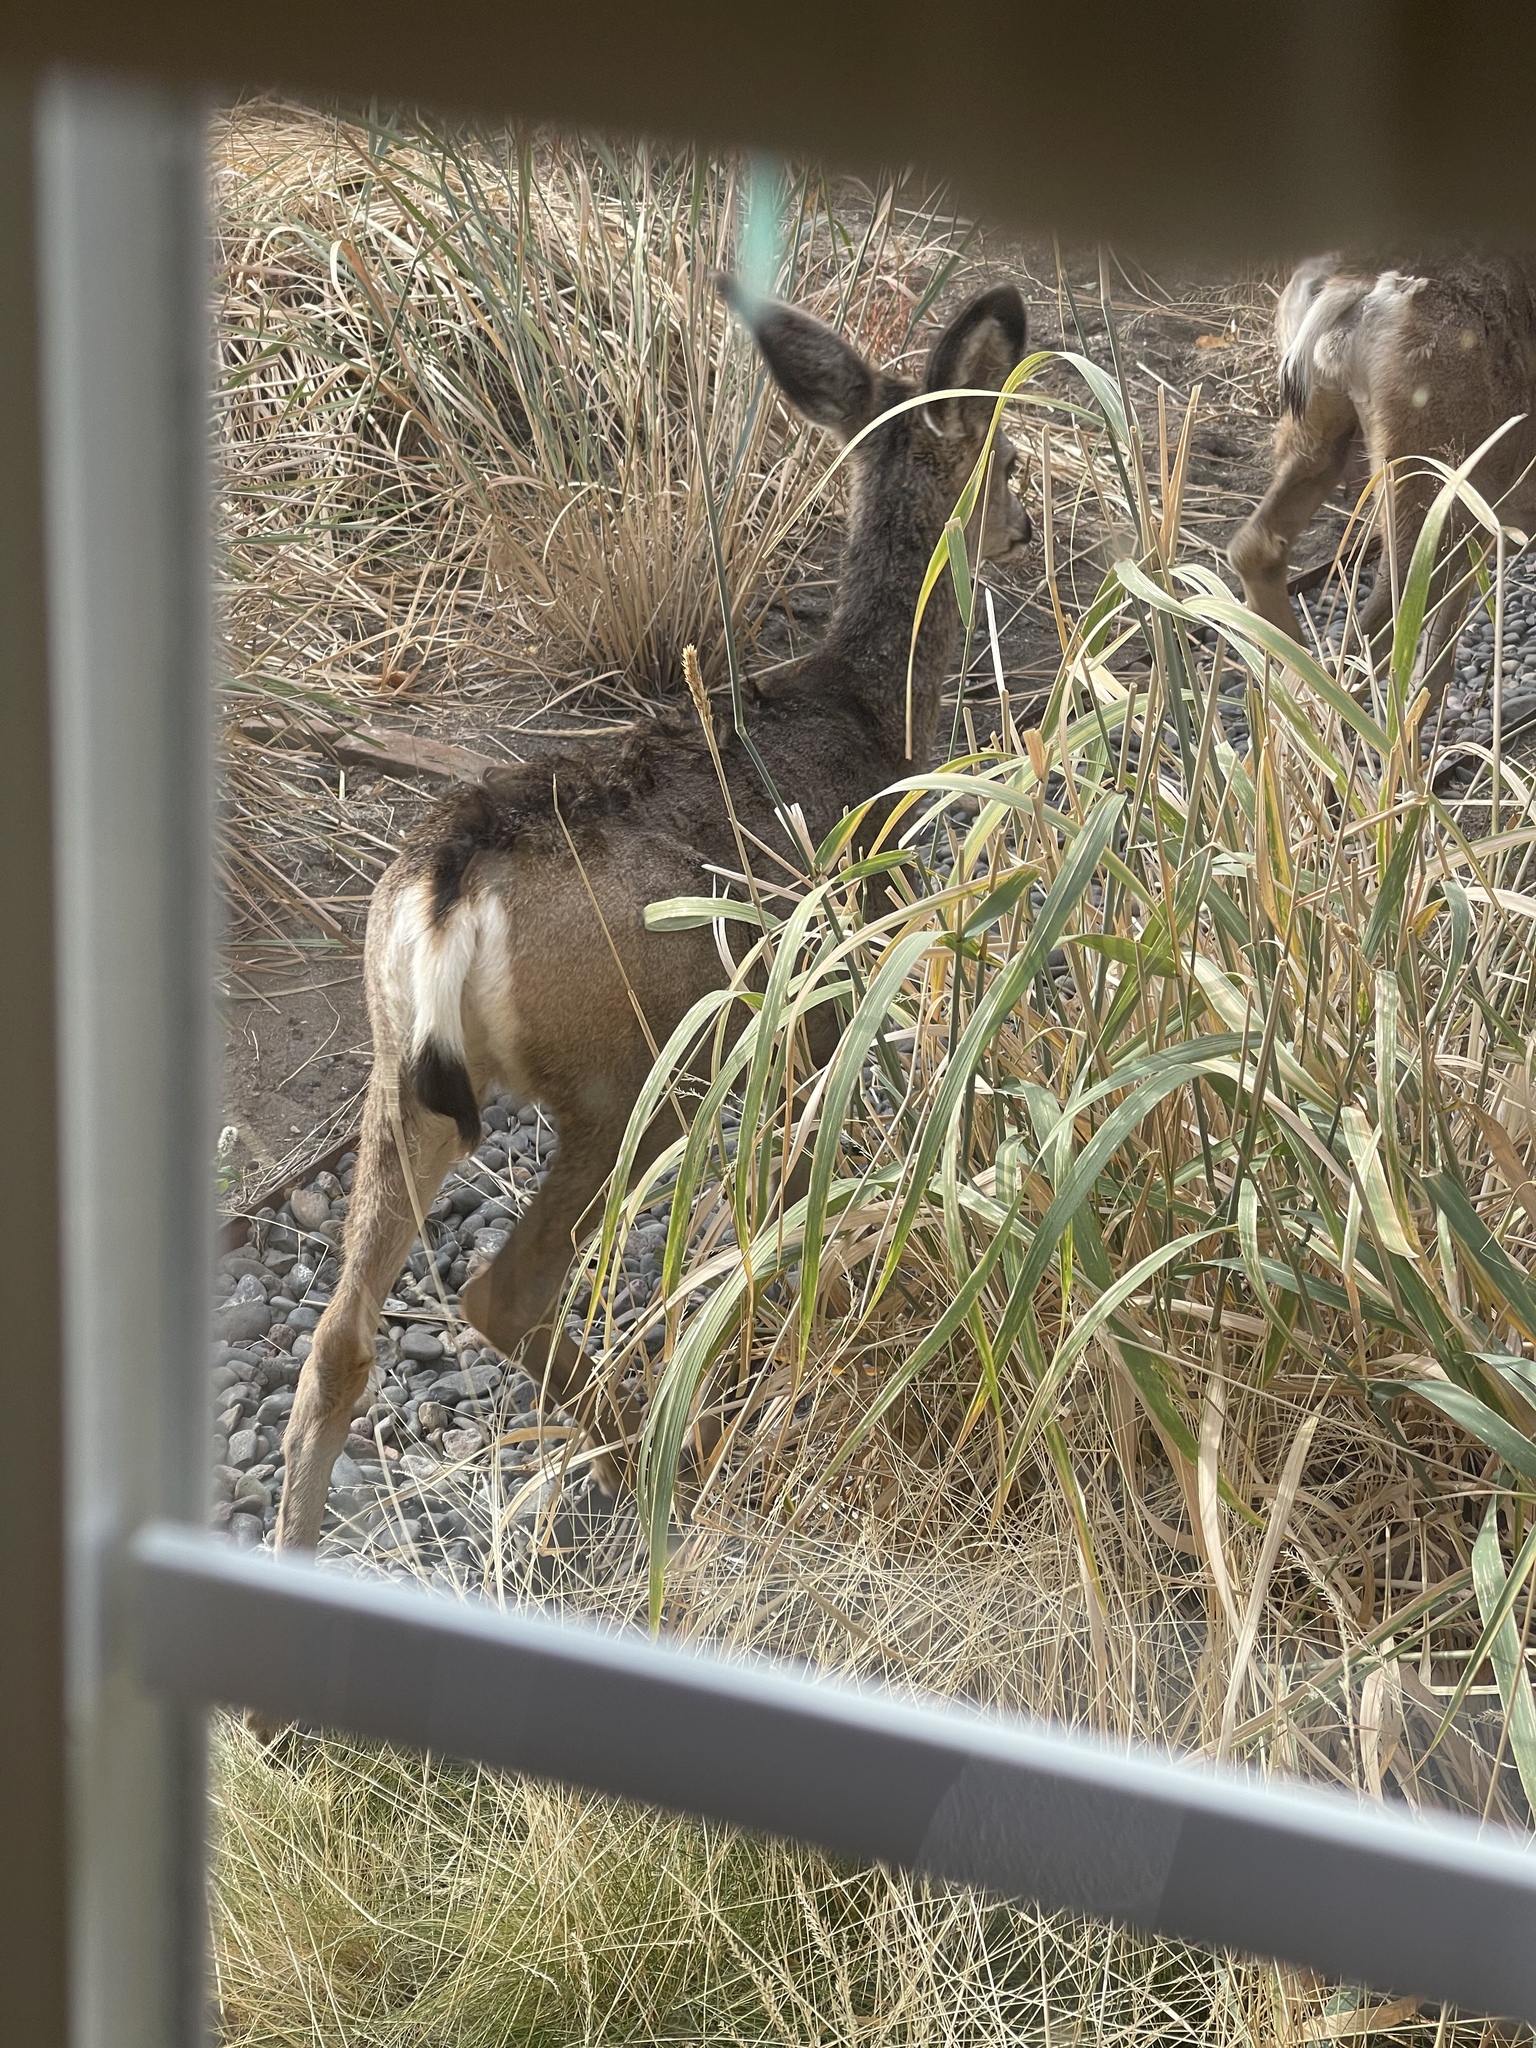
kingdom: Animalia
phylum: Chordata
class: Mammalia
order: Artiodactyla
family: Cervidae
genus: Odocoileus
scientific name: Odocoileus hemionus
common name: Mule deer
